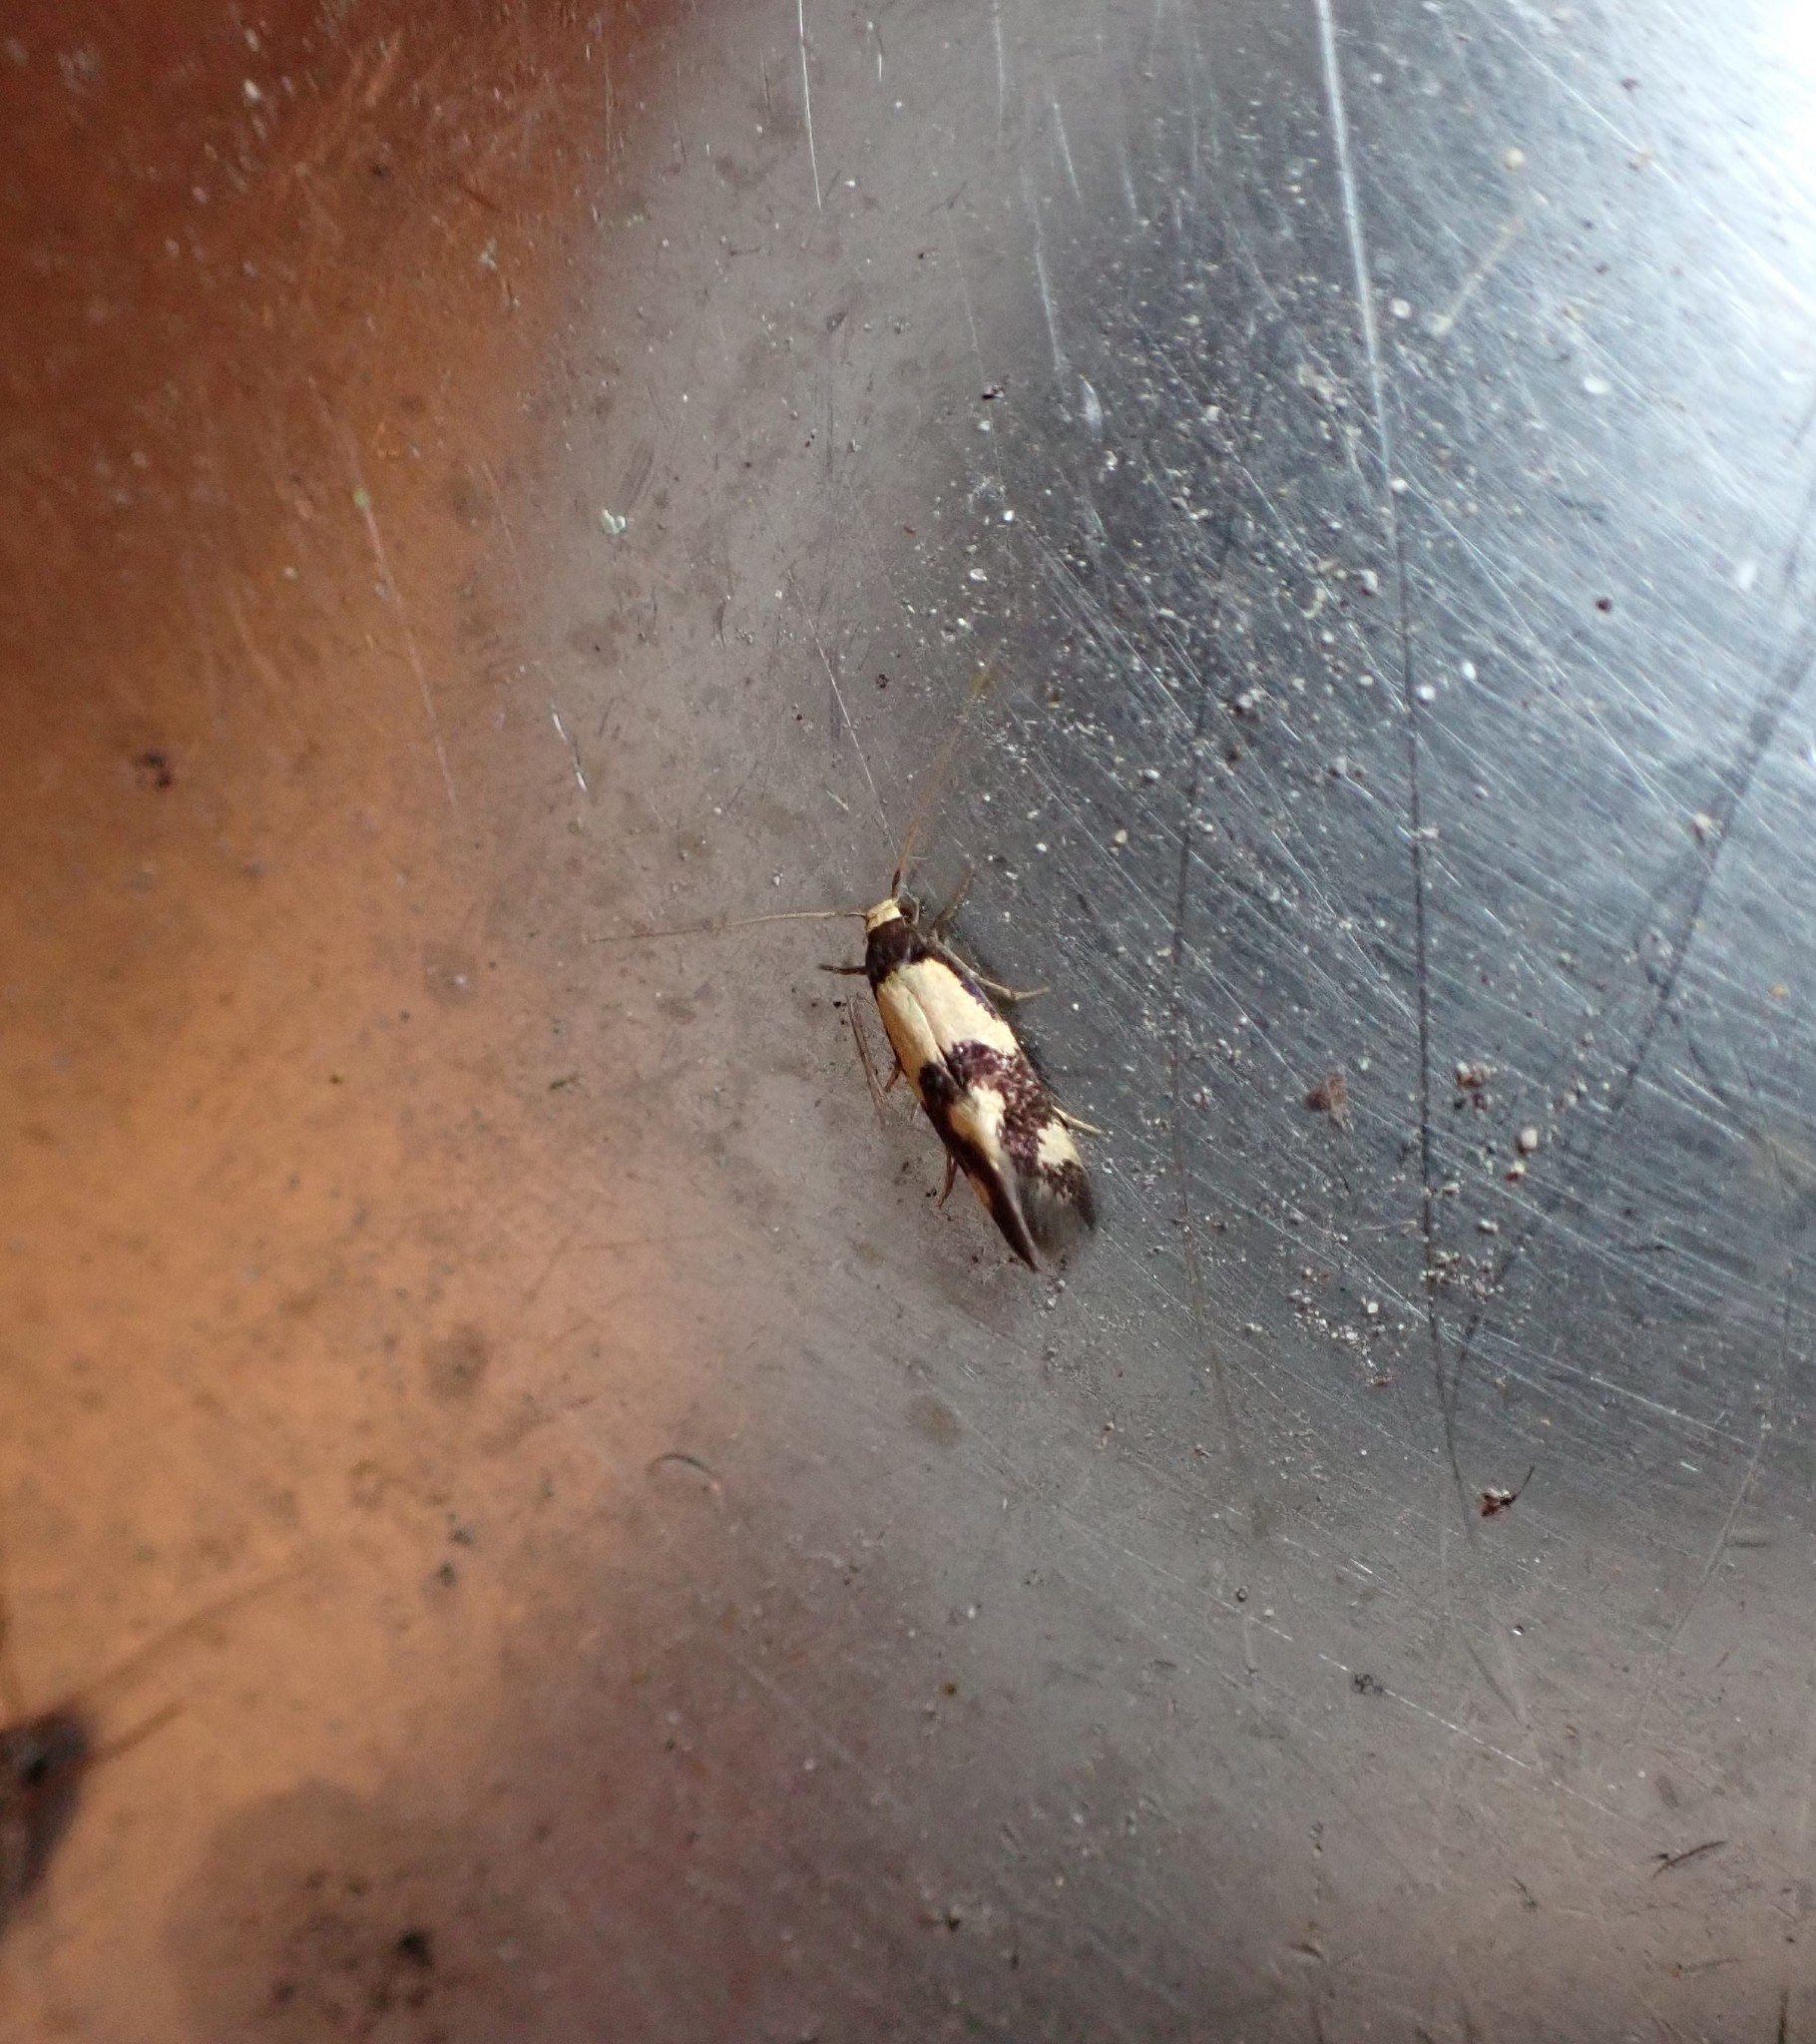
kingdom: Animalia
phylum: Arthropoda
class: Insecta
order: Lepidoptera
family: Tineidae
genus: Opogona
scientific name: Opogona comptella
